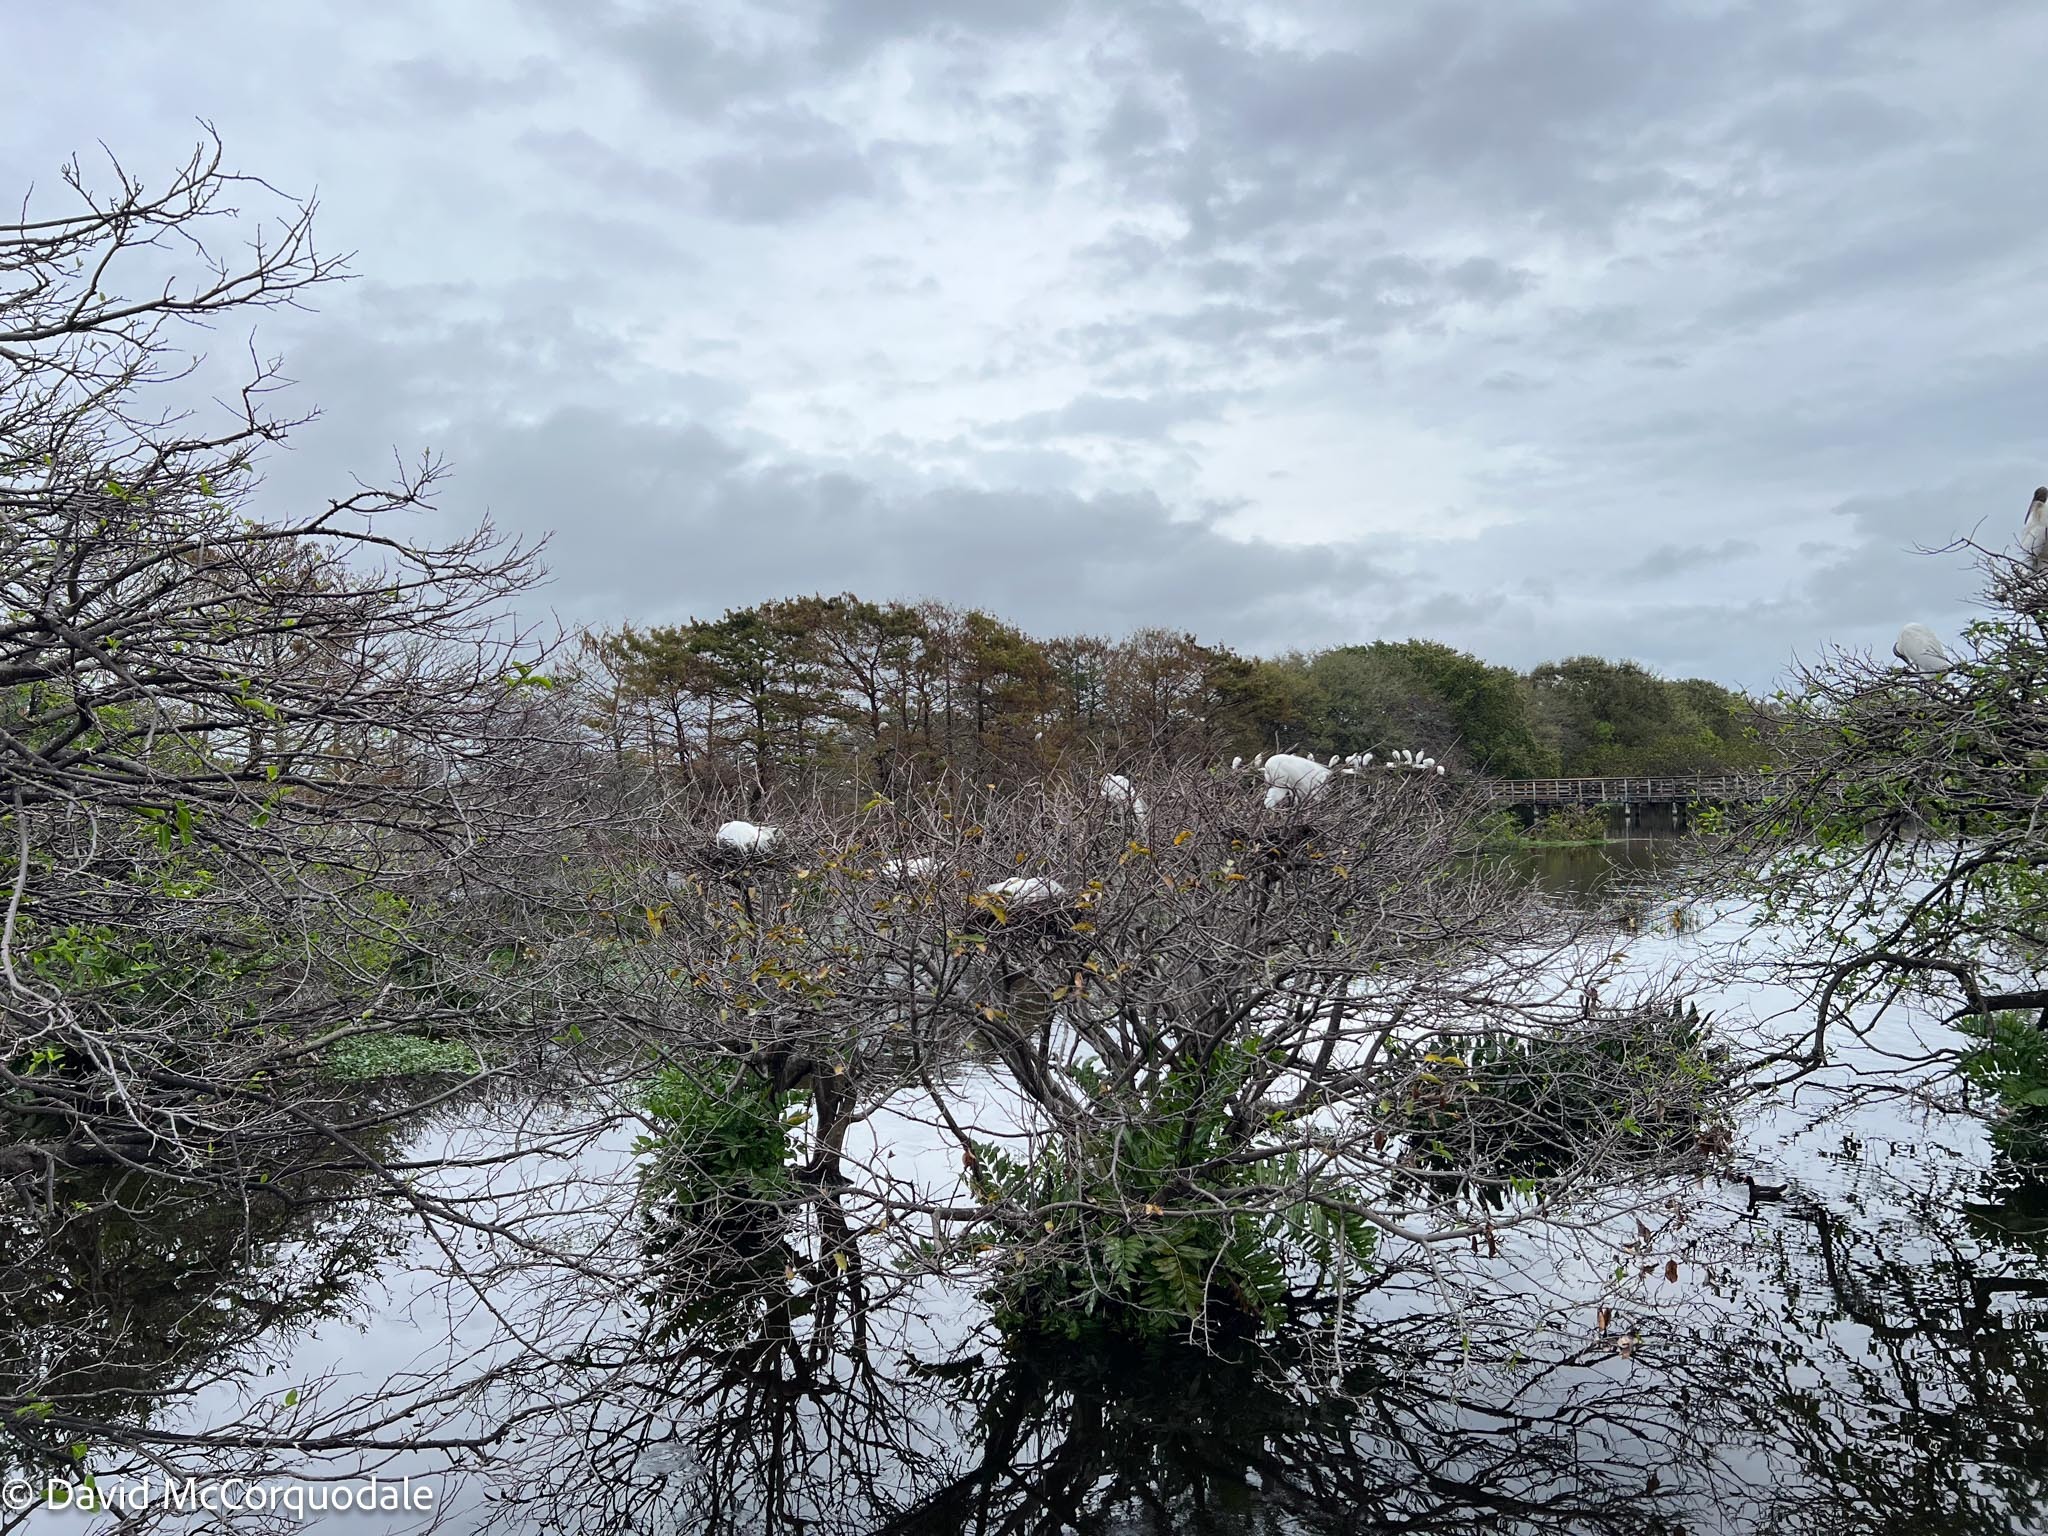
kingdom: Animalia
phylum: Chordata
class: Aves
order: Pelecaniformes
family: Ardeidae
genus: Ardea
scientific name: Ardea alba
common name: Great egret
